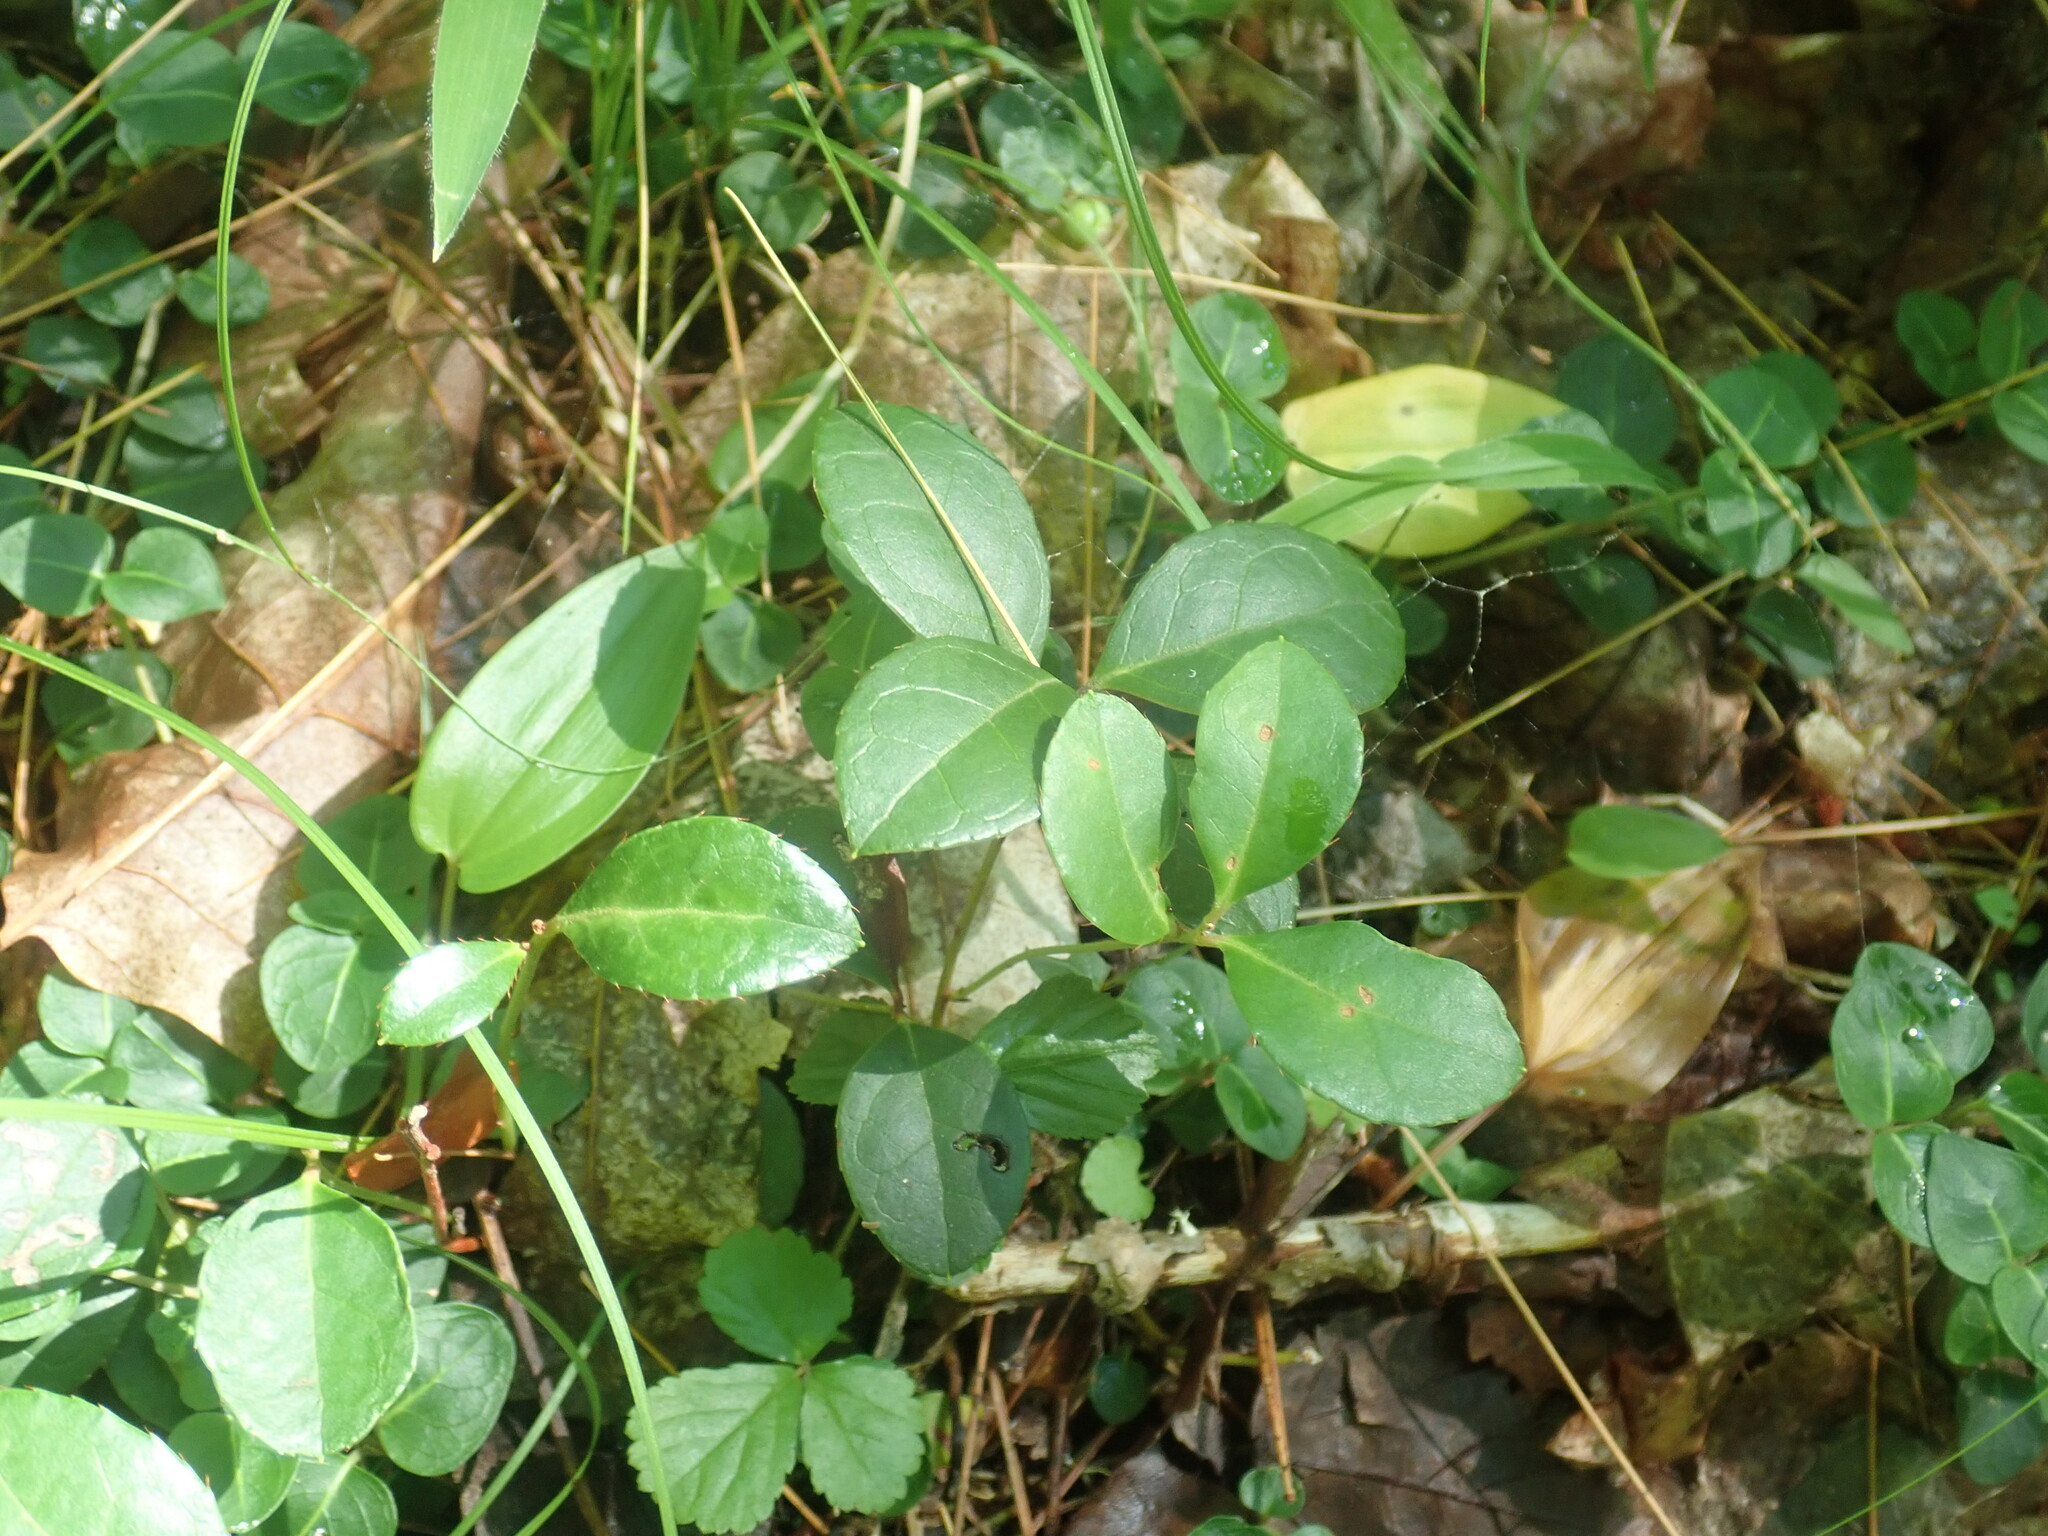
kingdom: Plantae
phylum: Tracheophyta
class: Magnoliopsida
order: Ericales
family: Ericaceae
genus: Gaultheria
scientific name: Gaultheria procumbens
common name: Checkerberry
